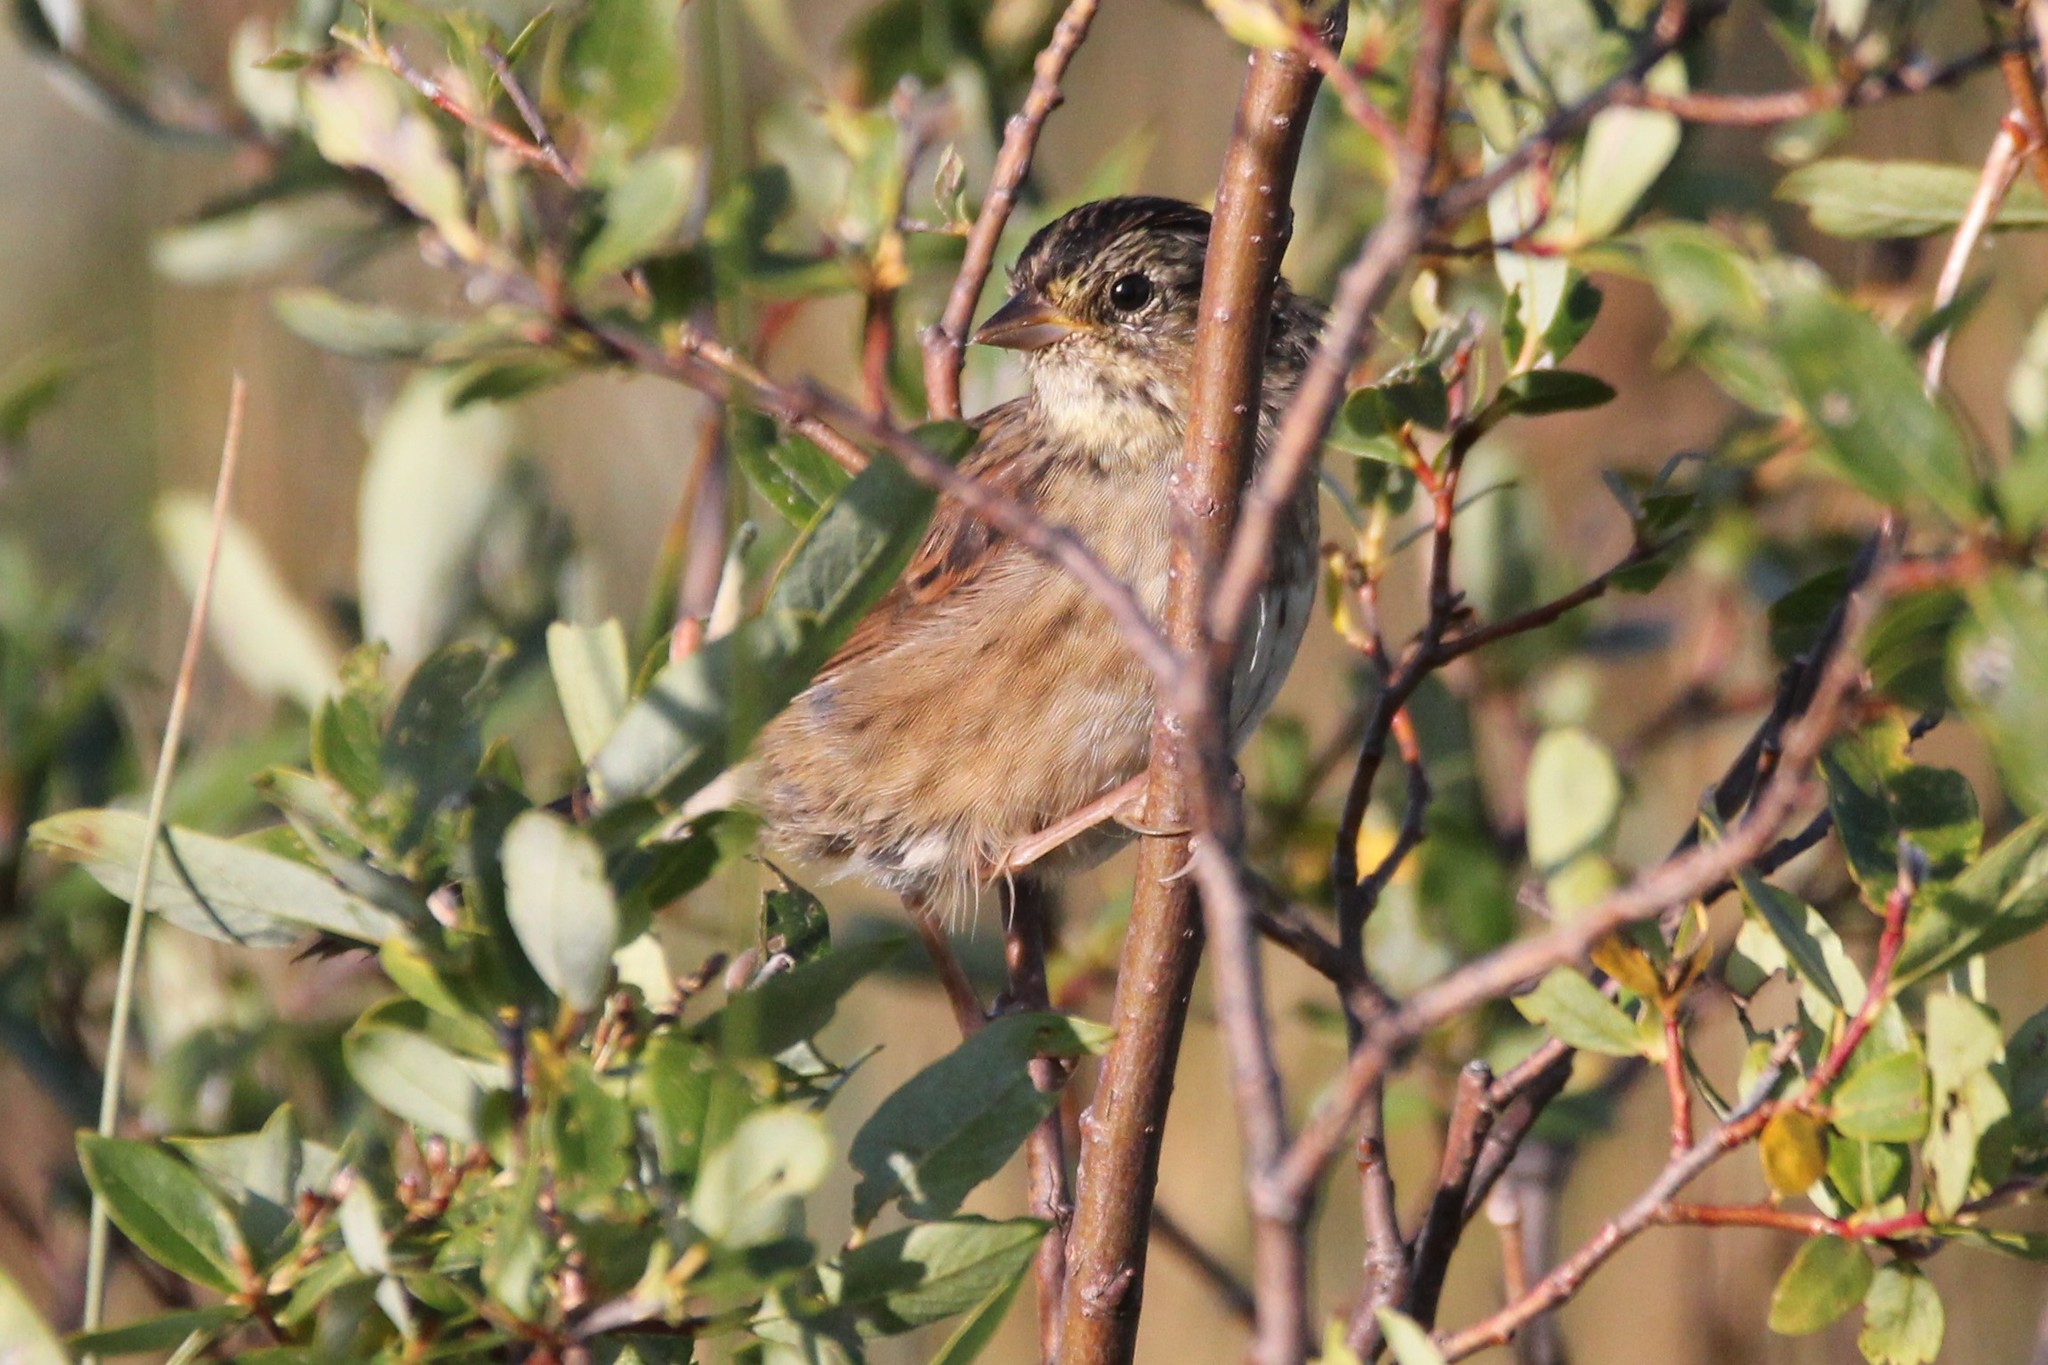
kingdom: Animalia
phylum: Chordata
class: Aves
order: Passeriformes
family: Passerellidae
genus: Melospiza
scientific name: Melospiza georgiana
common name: Swamp sparrow
